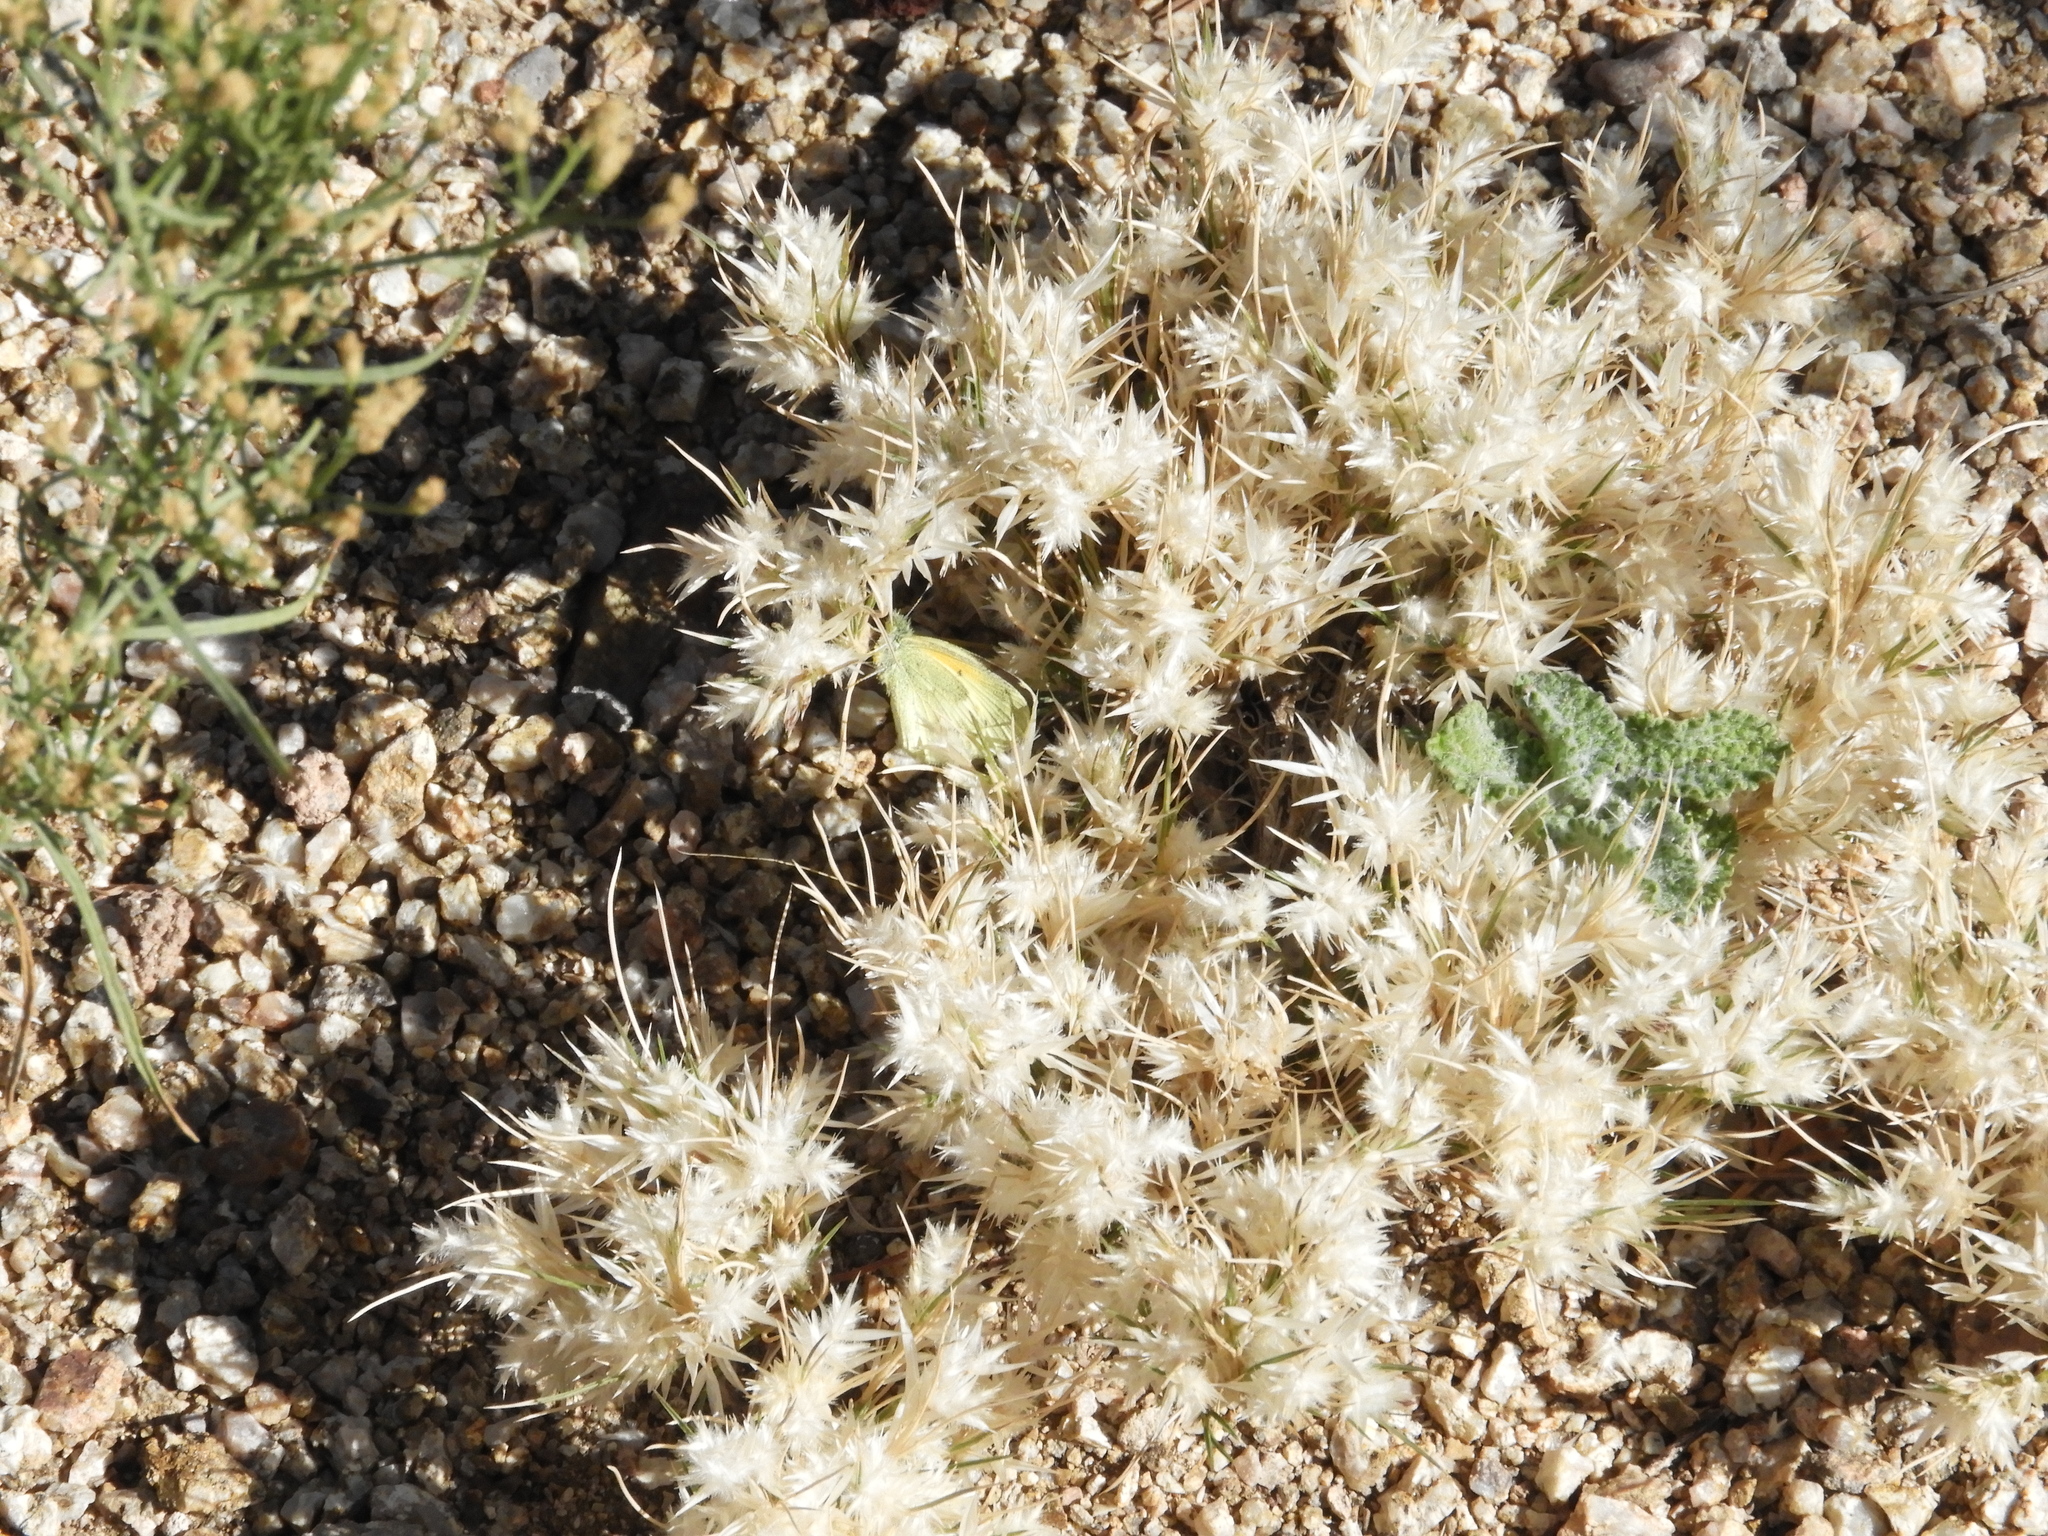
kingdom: Plantae
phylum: Tracheophyta
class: Liliopsida
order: Poales
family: Poaceae
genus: Dasyochloa
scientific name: Dasyochloa pulchella
